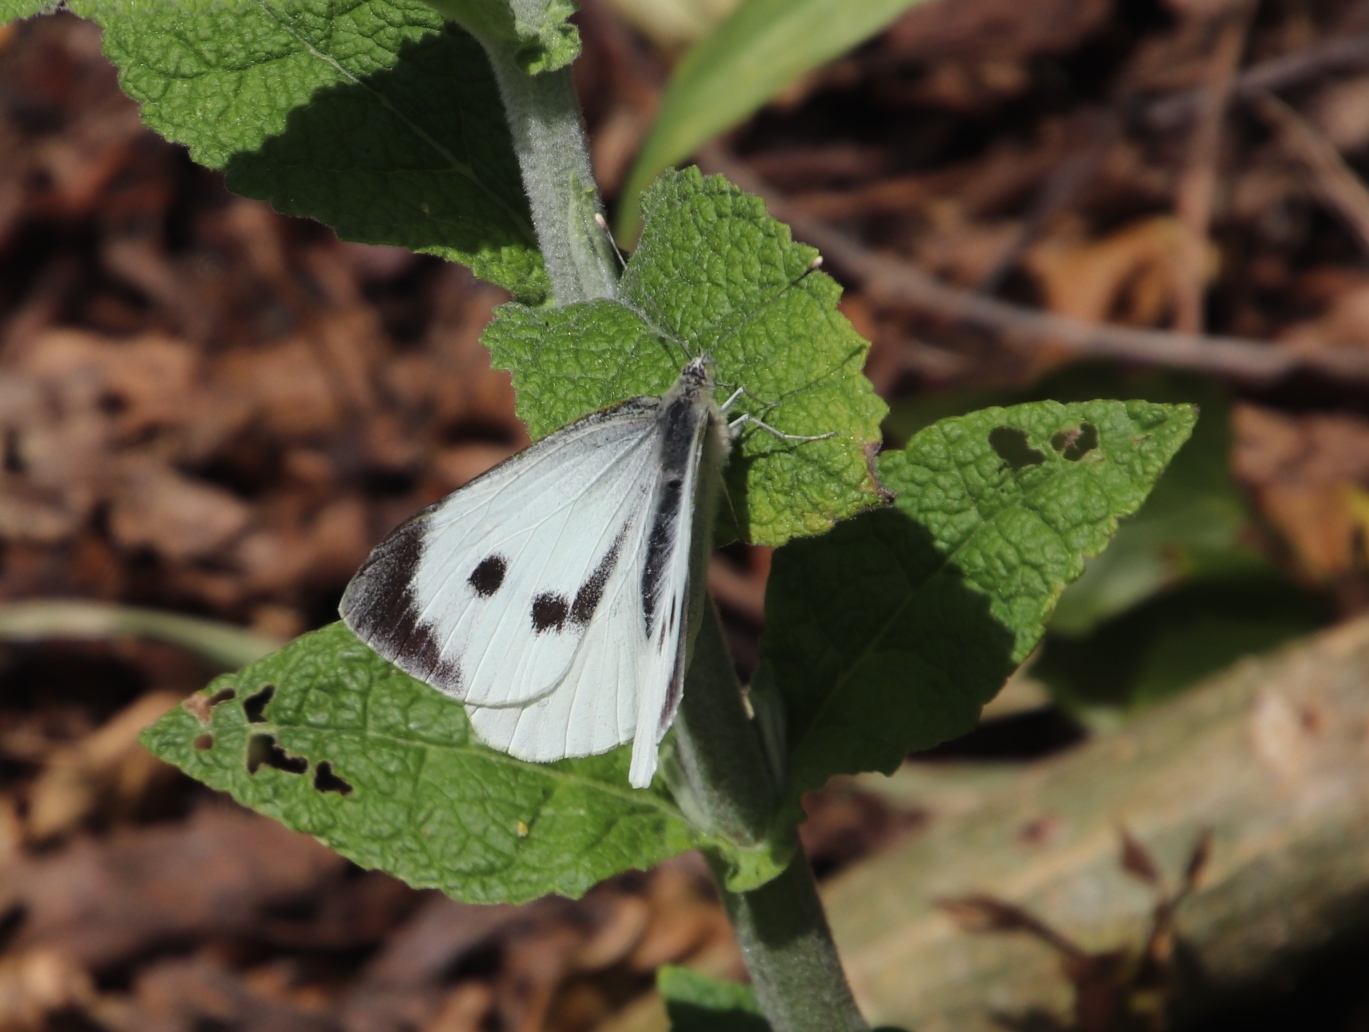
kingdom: Animalia
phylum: Arthropoda
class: Insecta
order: Lepidoptera
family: Pieridae
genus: Pieris
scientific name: Pieris brassicae
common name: Large white
